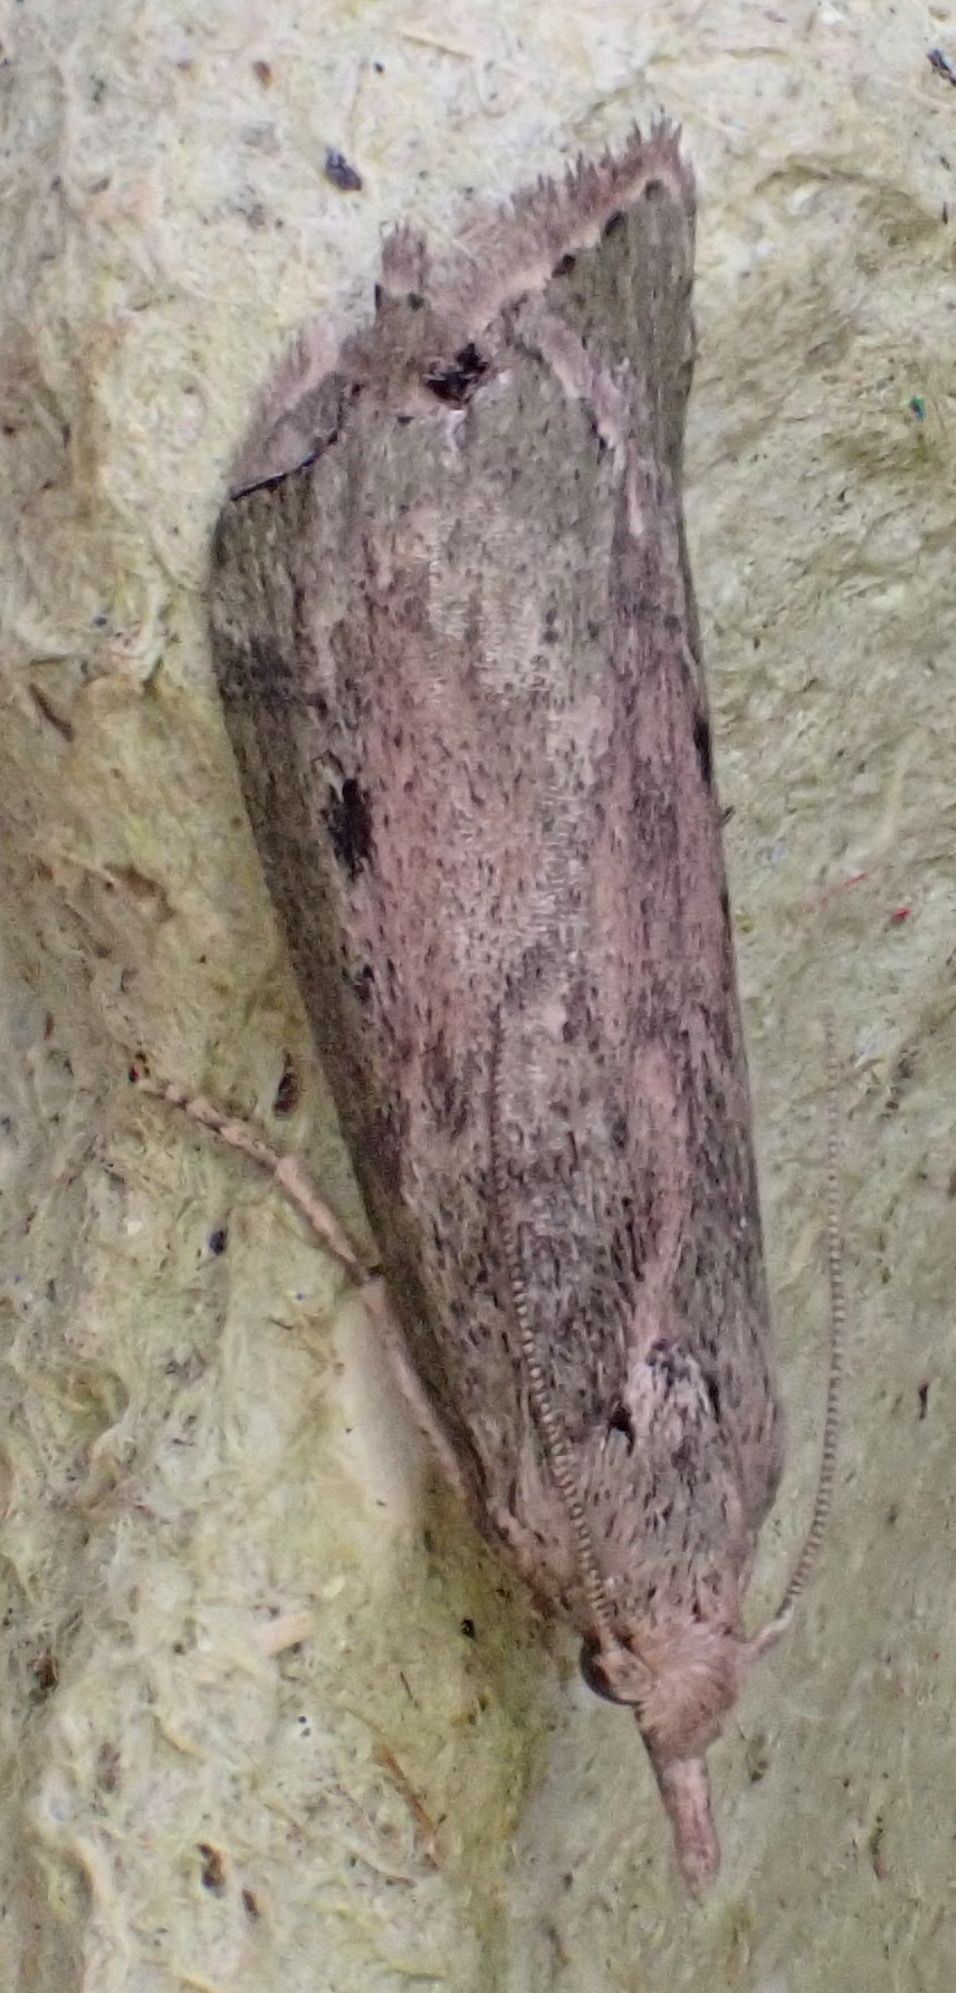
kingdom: Animalia
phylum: Arthropoda
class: Insecta
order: Lepidoptera
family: Pyralidae
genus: Aphomia
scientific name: Aphomia sociella
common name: Bee moth
